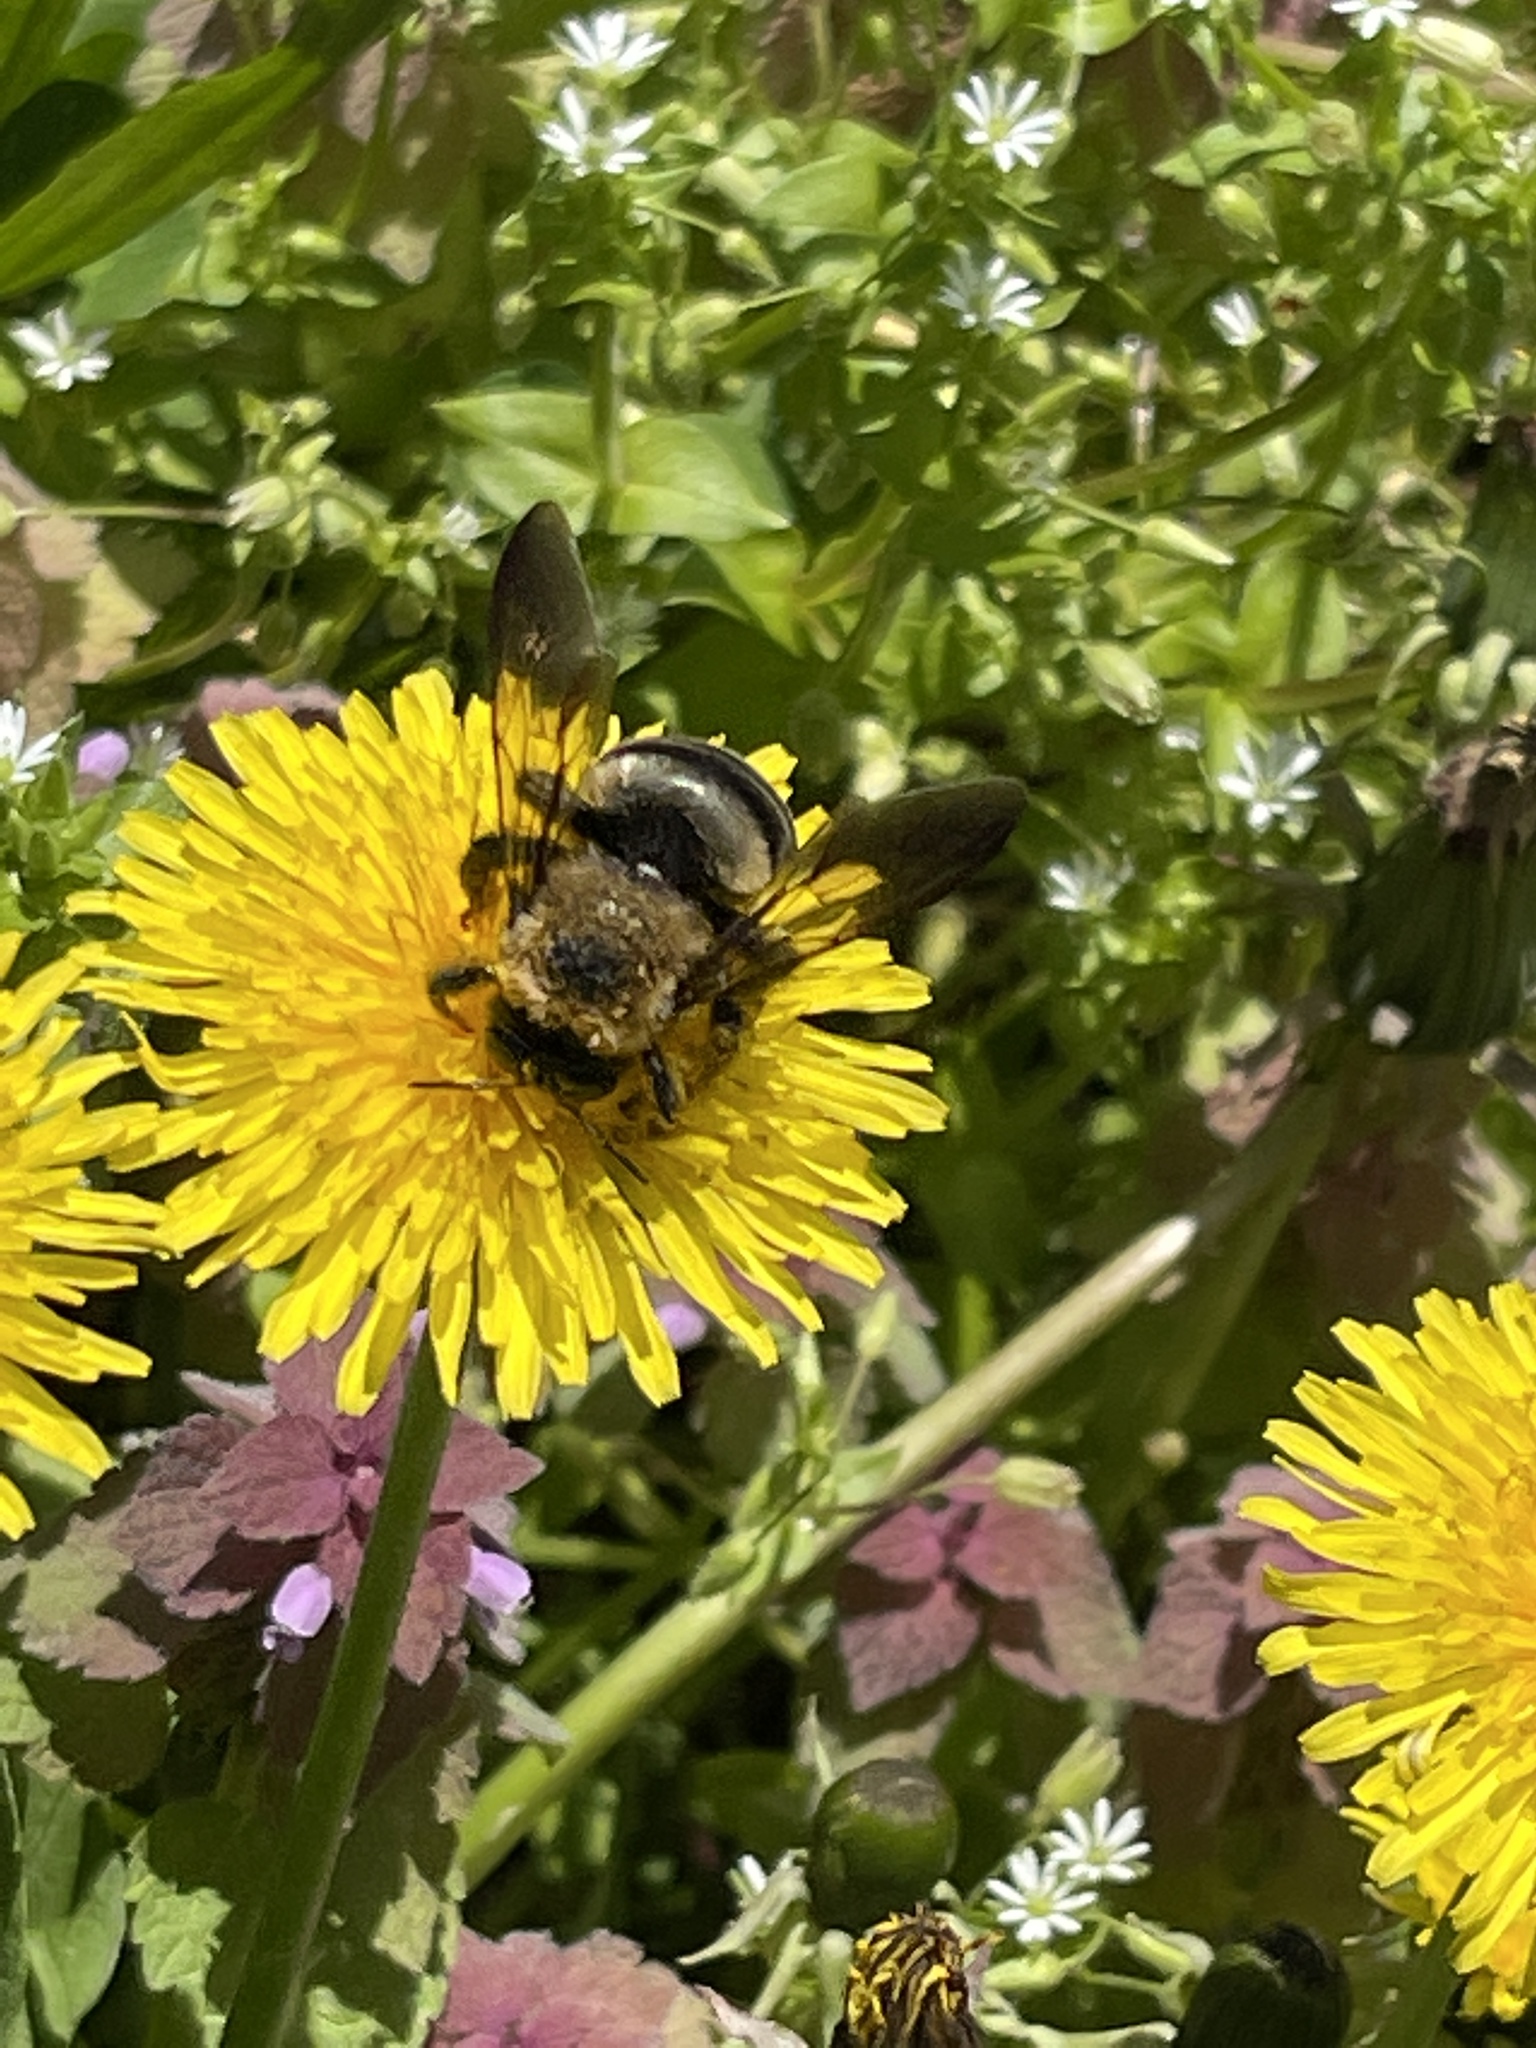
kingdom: Animalia
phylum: Arthropoda
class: Insecta
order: Hymenoptera
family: Apidae
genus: Xylocopa
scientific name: Xylocopa virginica
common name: Carpenter bee
